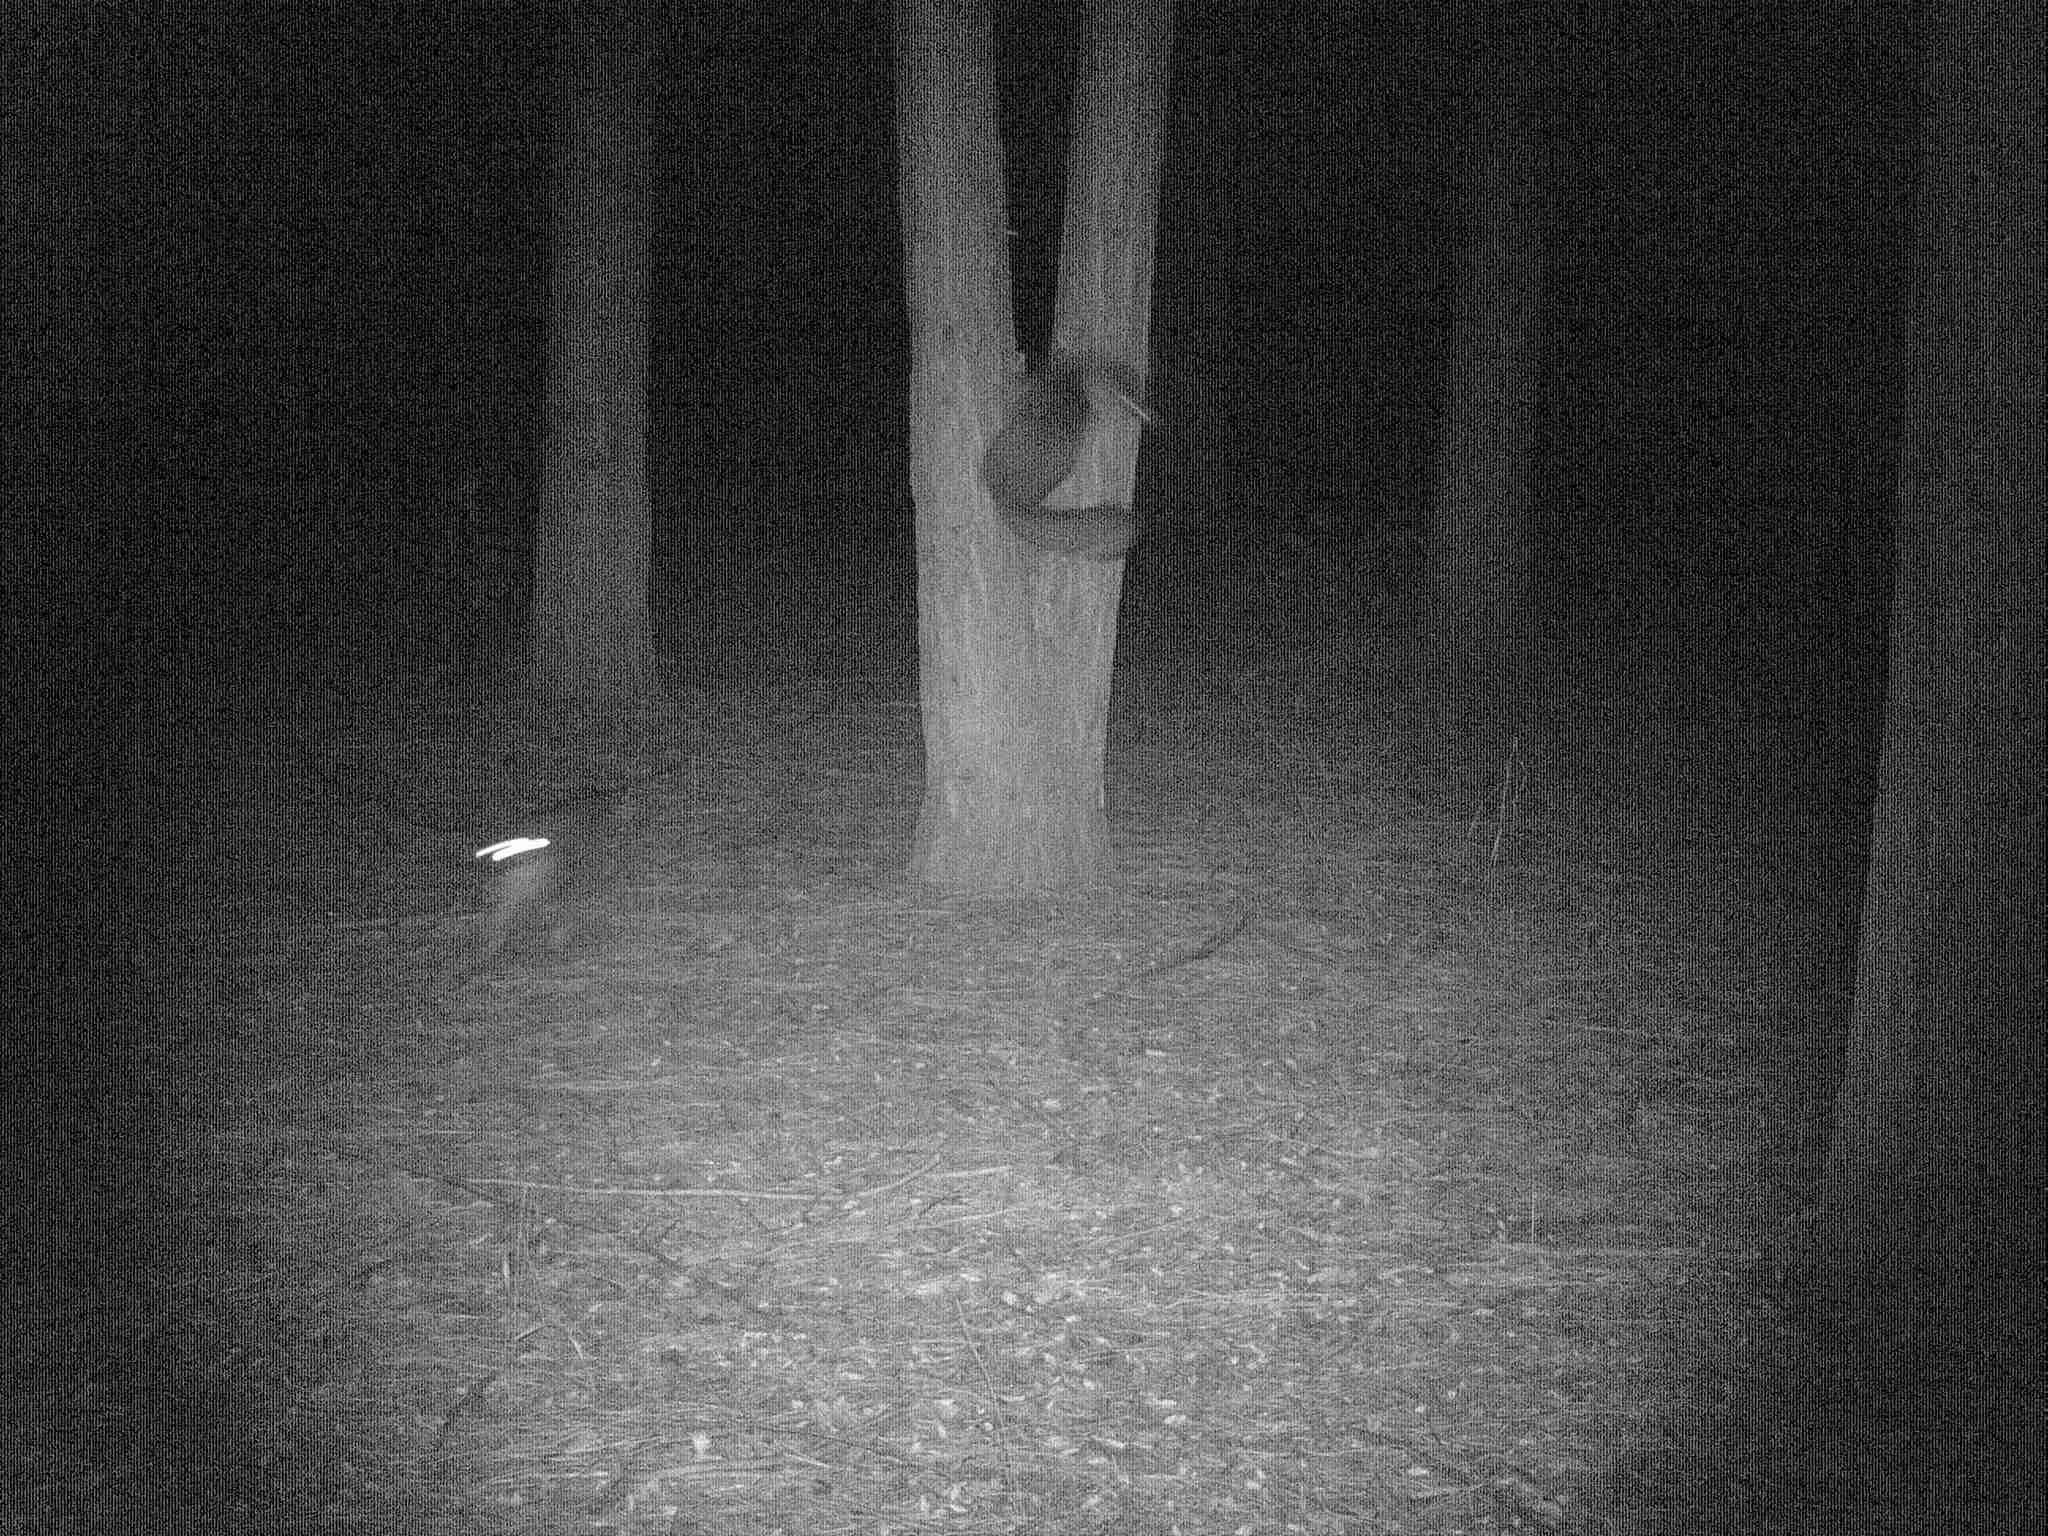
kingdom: Animalia
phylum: Chordata
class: Mammalia
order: Carnivora
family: Canidae
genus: Urocyon
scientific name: Urocyon cinereoargenteus
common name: Gray fox
